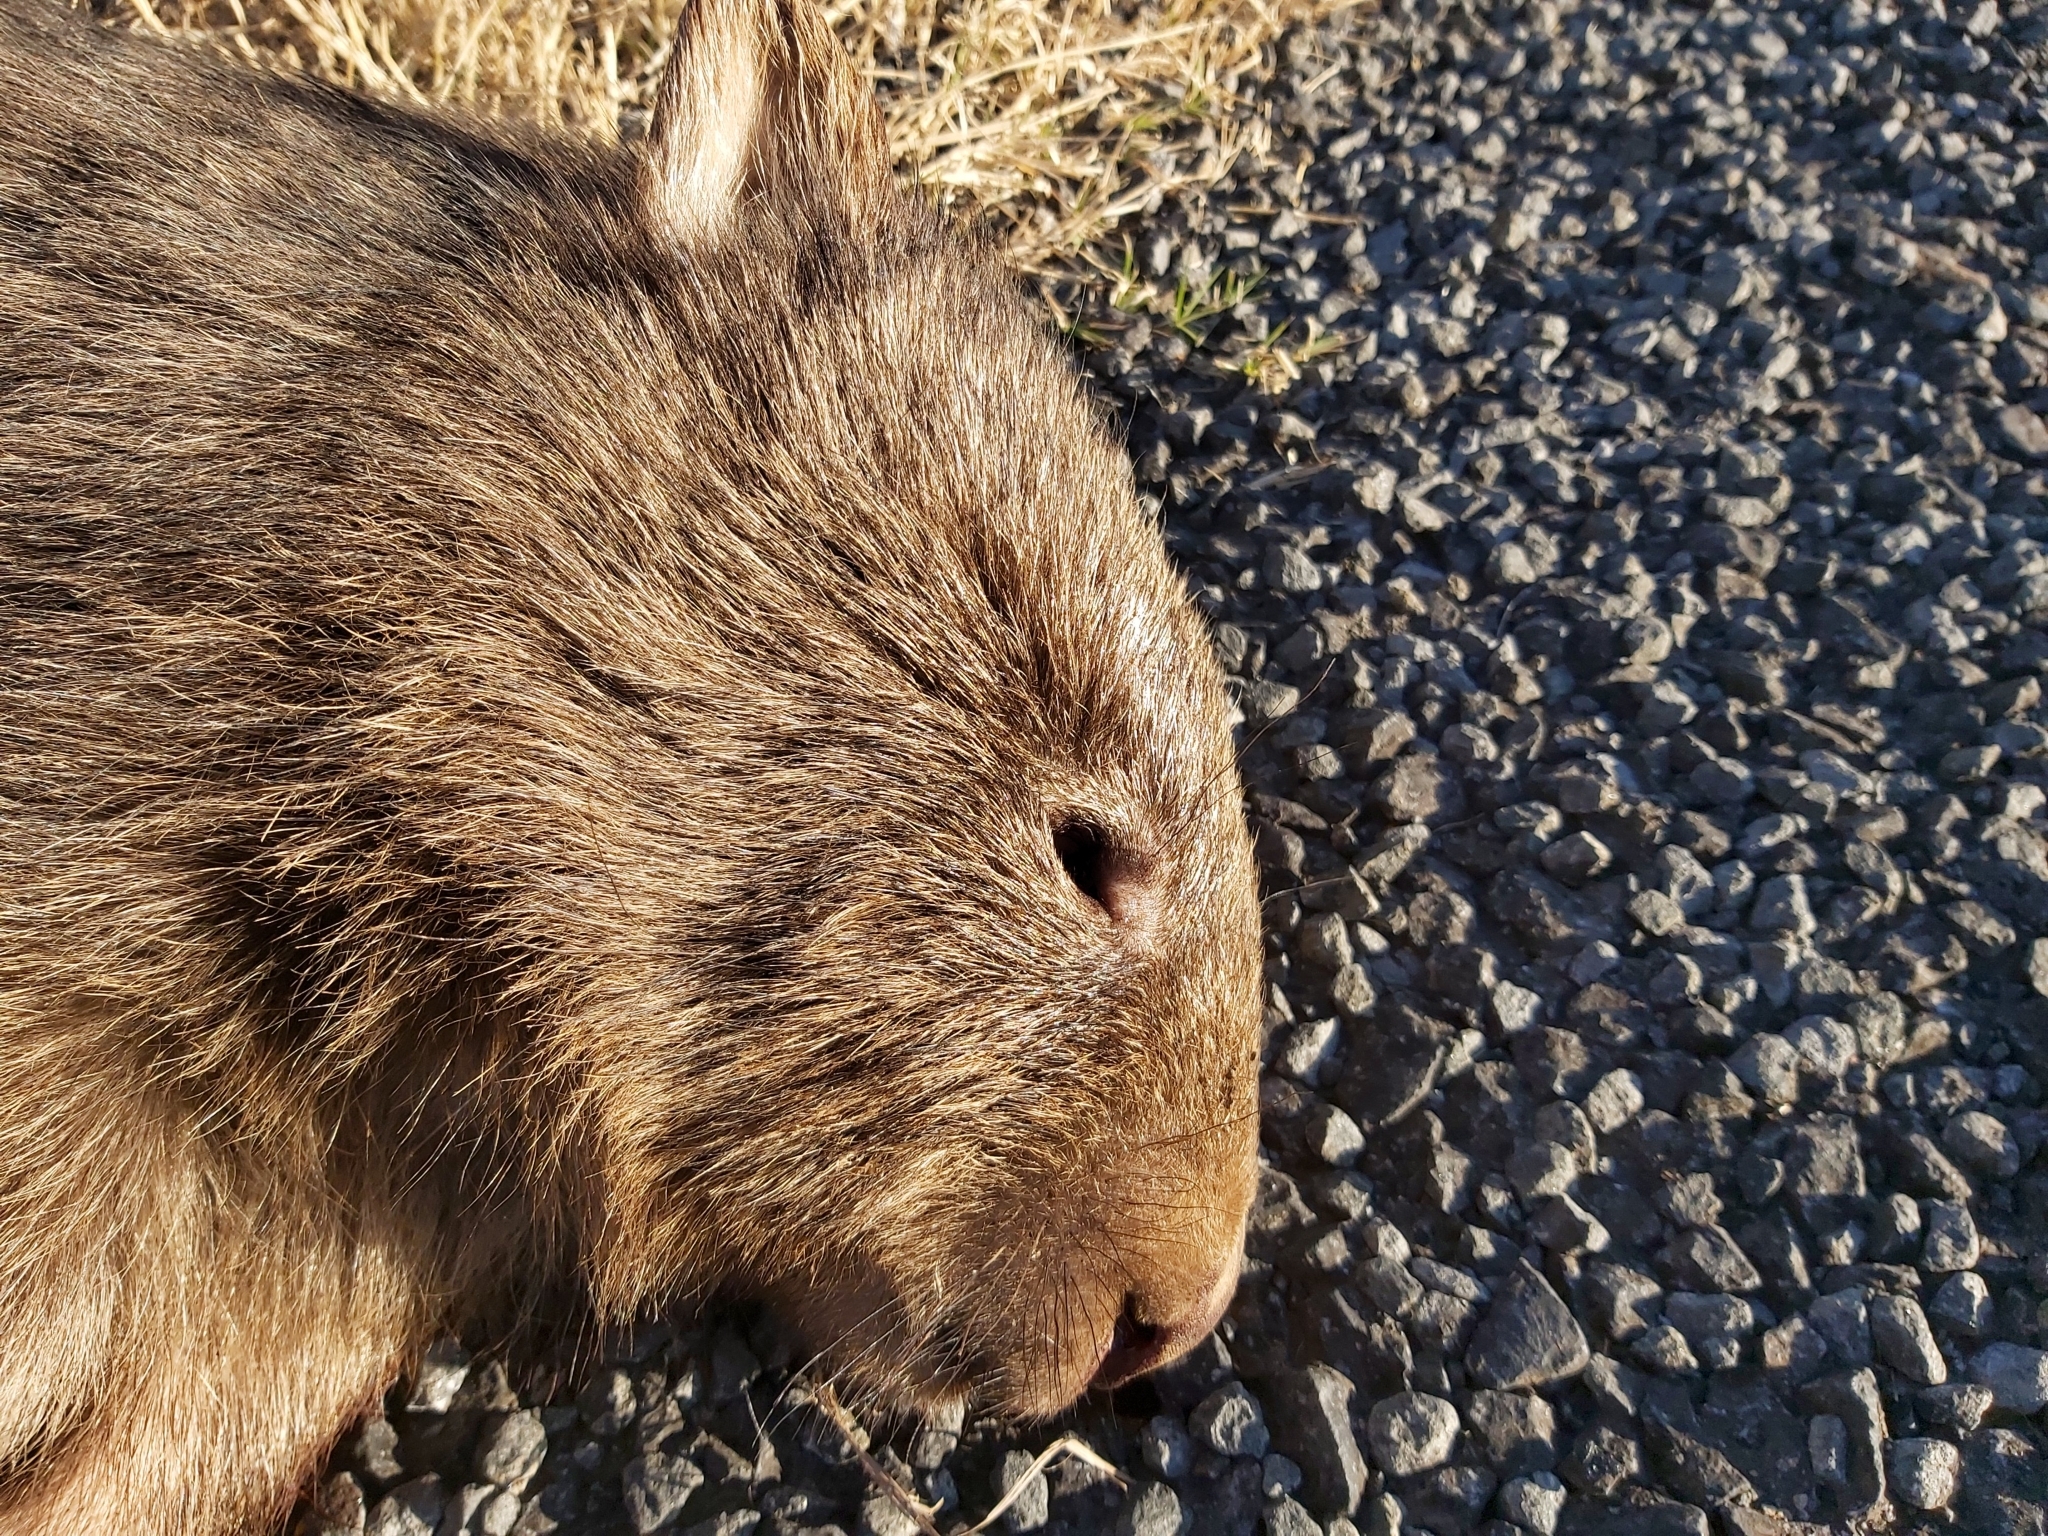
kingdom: Animalia
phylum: Chordata
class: Mammalia
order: Diprotodontia
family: Vombatidae
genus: Vombatus
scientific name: Vombatus ursinus
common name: Common wombat
